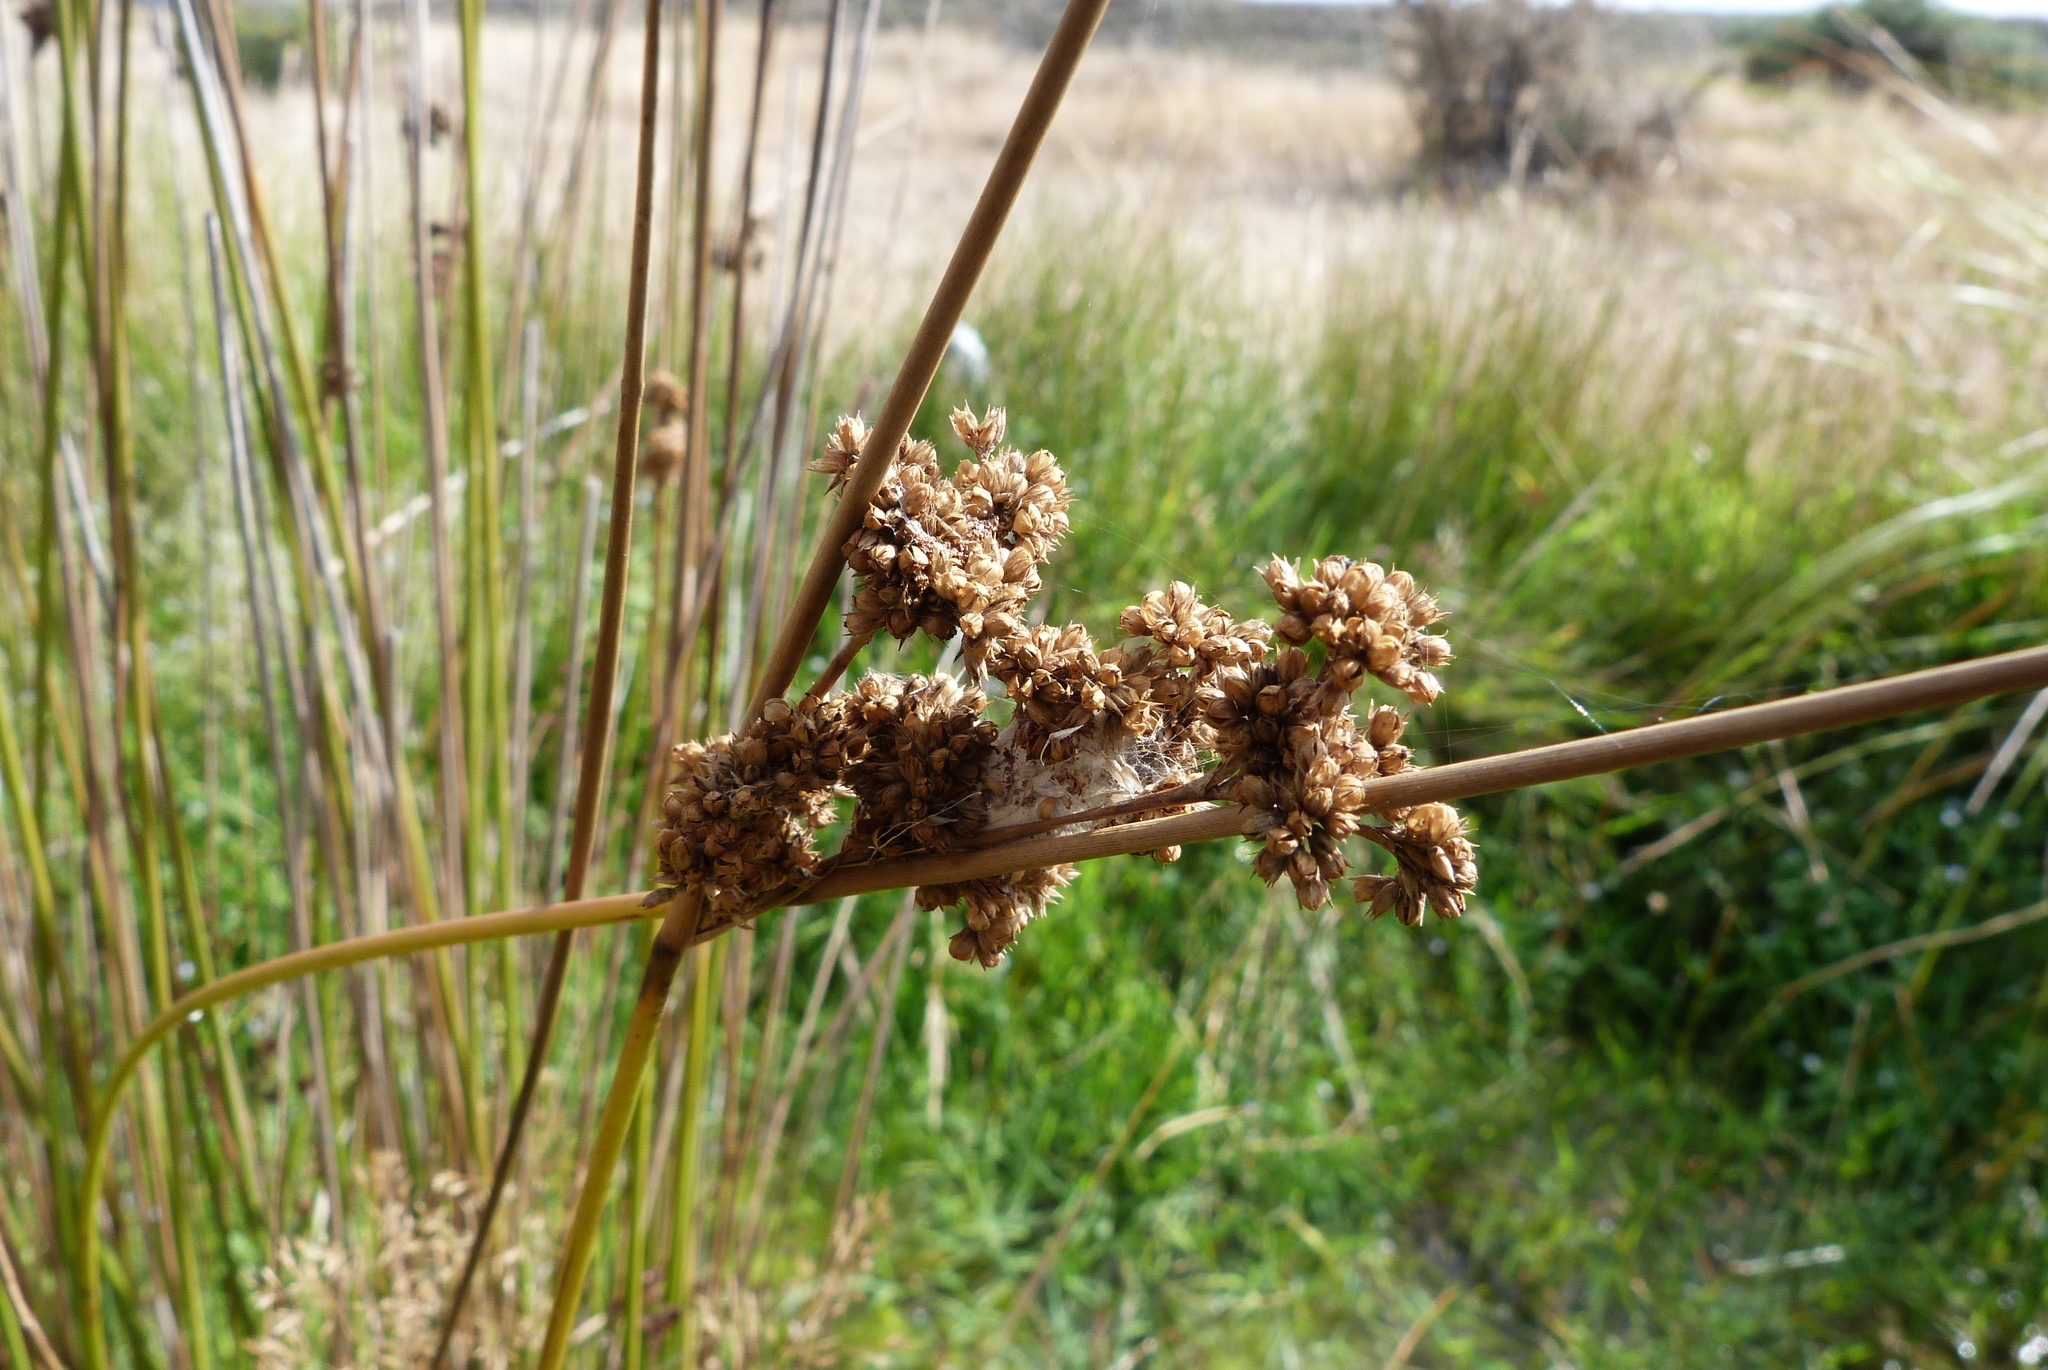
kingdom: Plantae
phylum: Tracheophyta
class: Liliopsida
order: Poales
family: Juncaceae
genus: Juncus
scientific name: Juncus australis
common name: Austral rush
